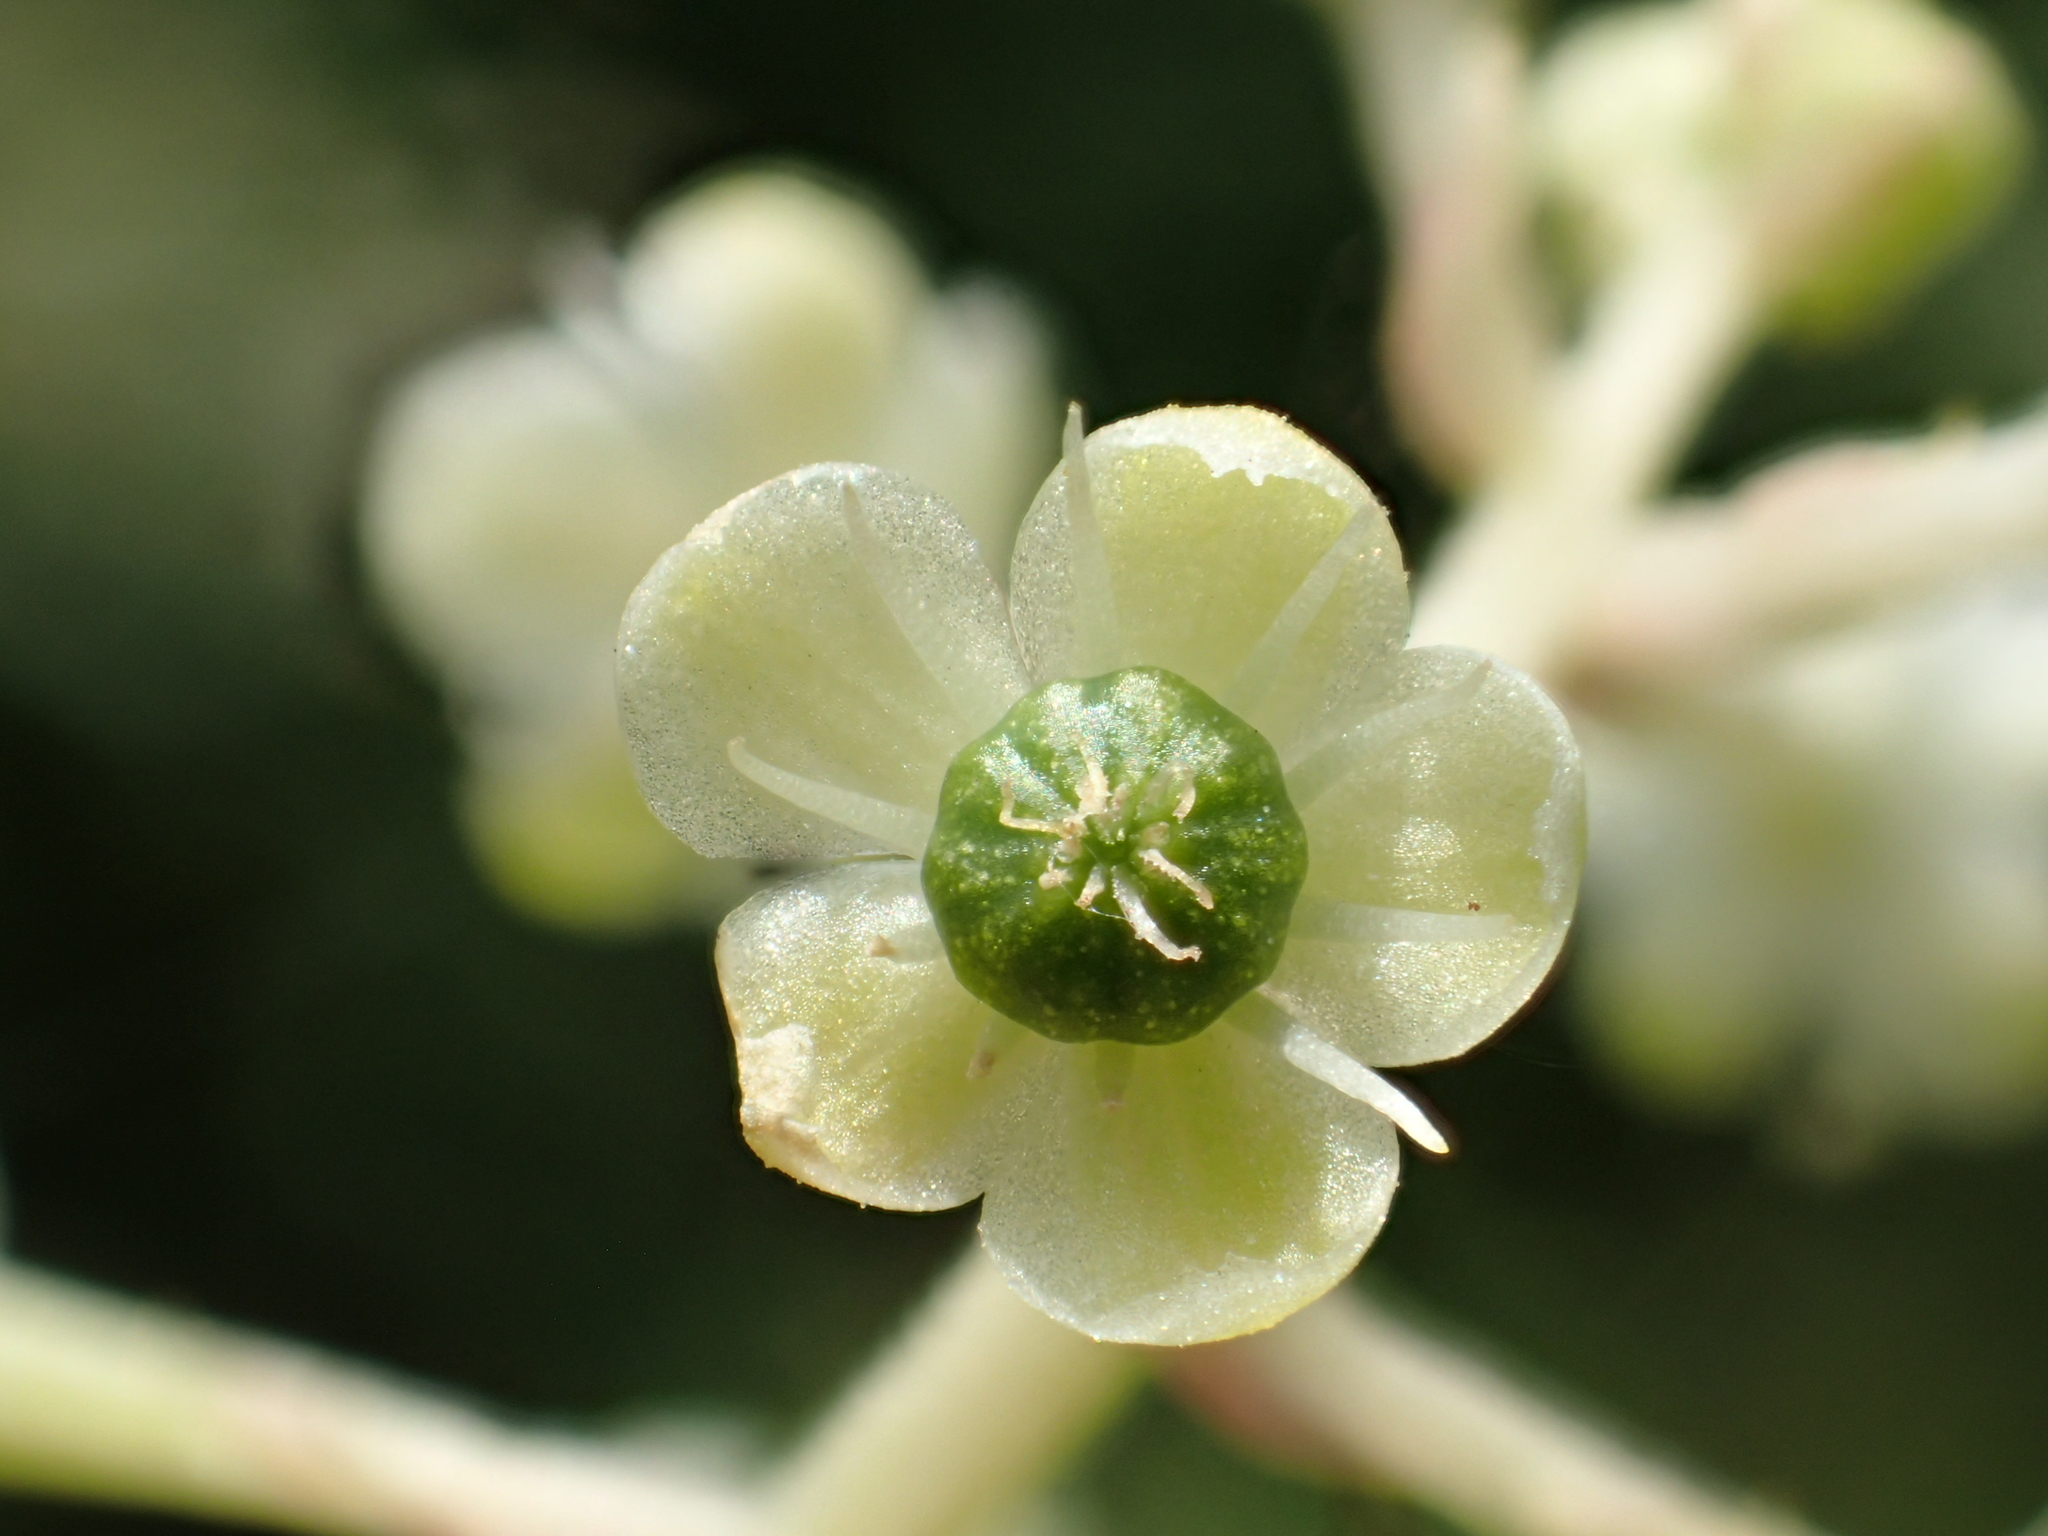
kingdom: Plantae
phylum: Tracheophyta
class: Magnoliopsida
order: Caryophyllales
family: Phytolaccaceae
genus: Phytolacca
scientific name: Phytolacca americana
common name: American pokeweed
